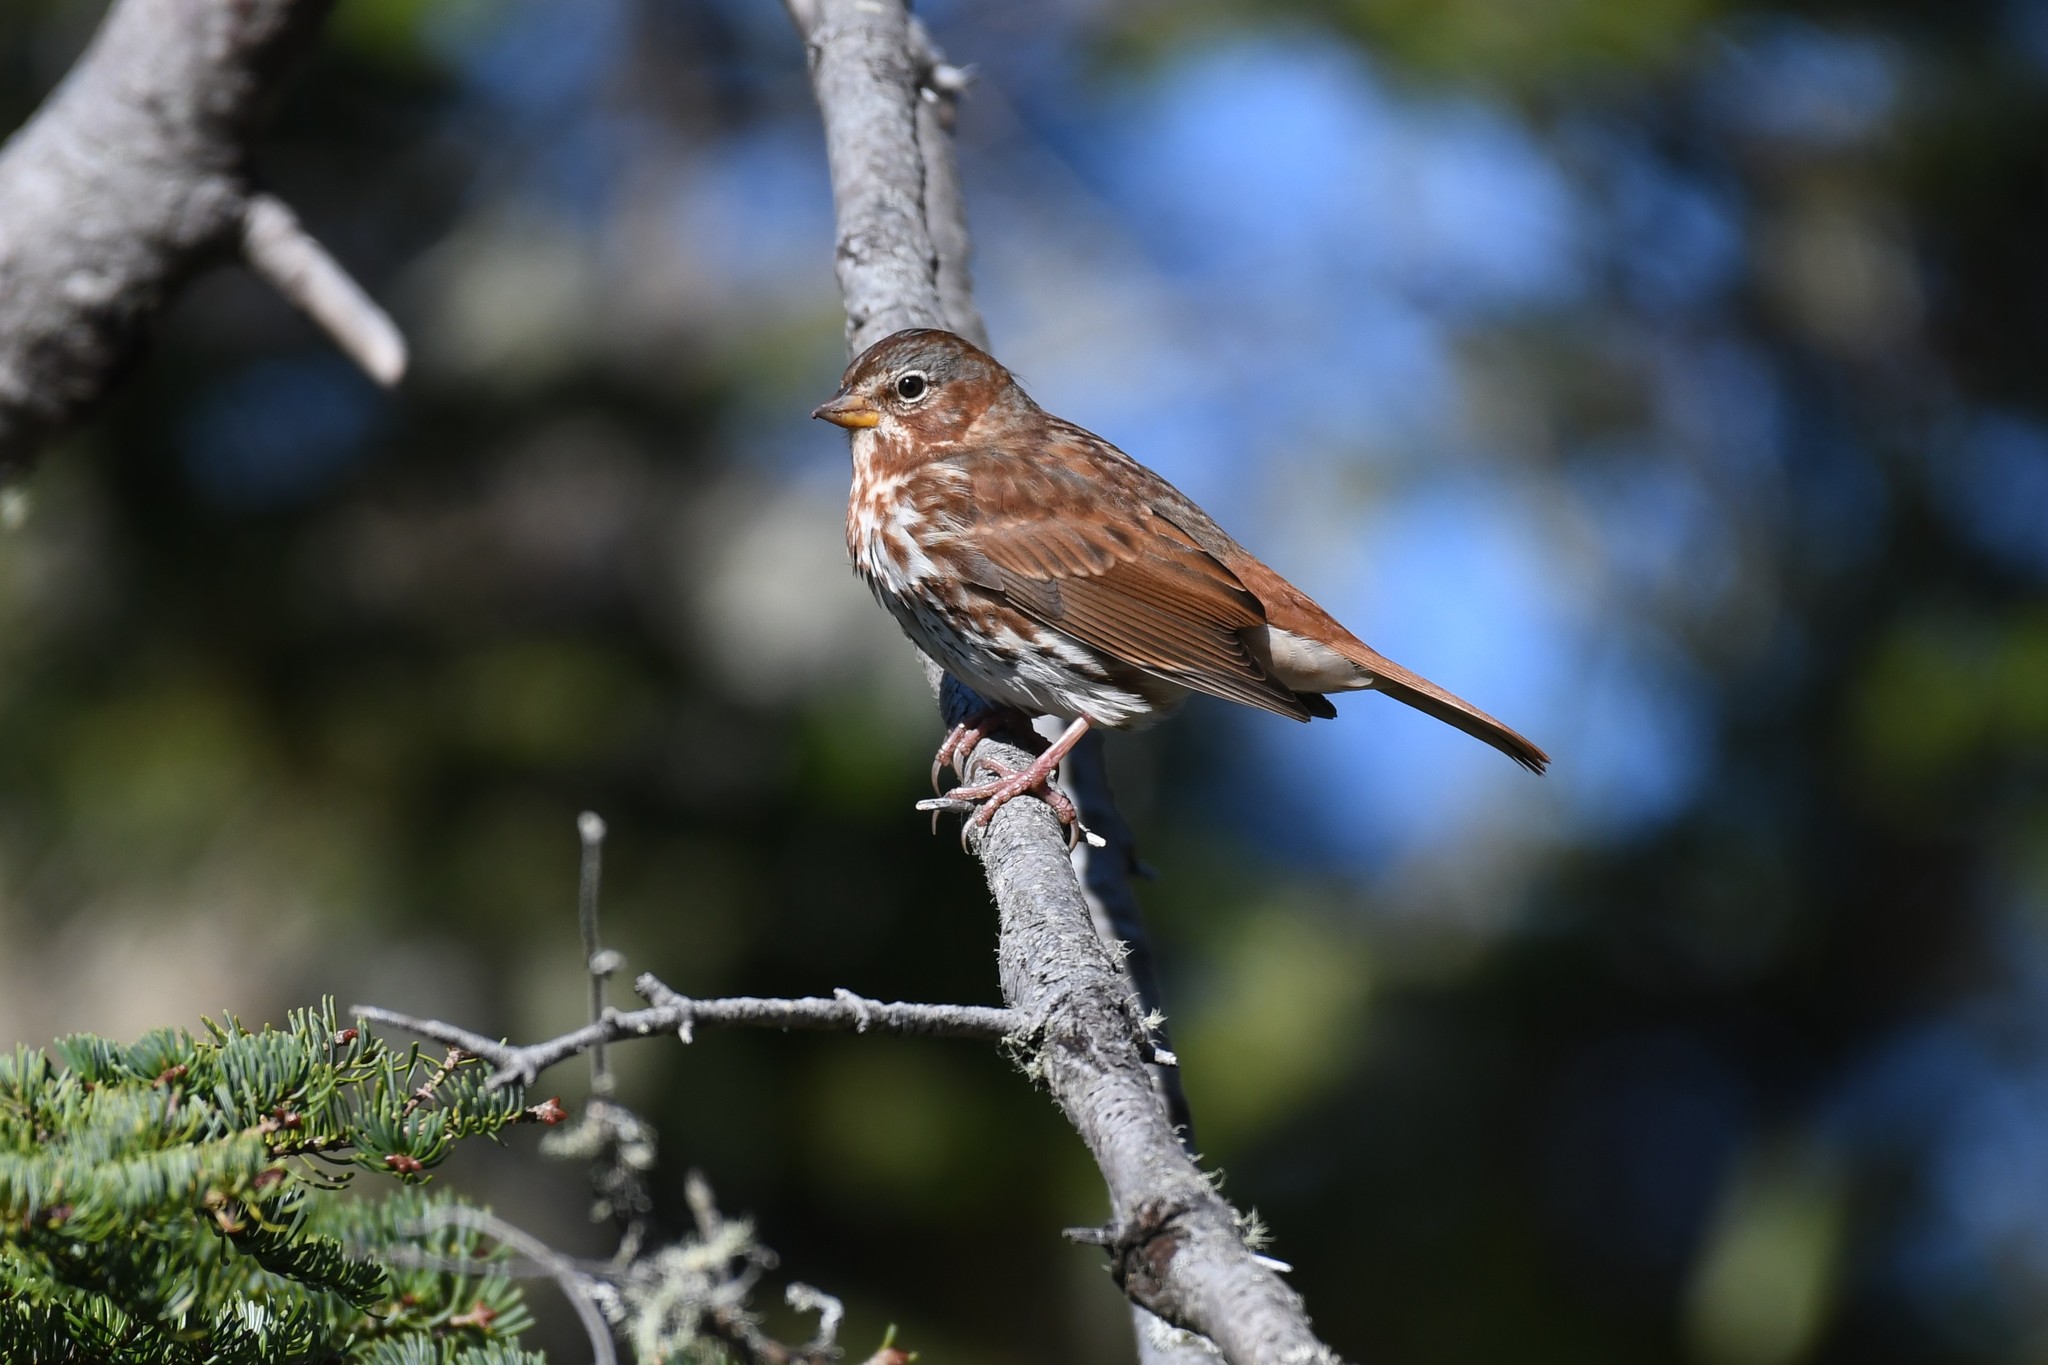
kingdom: Animalia
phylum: Chordata
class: Aves
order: Passeriformes
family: Passerellidae
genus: Passerella
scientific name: Passerella iliaca
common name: Fox sparrow
